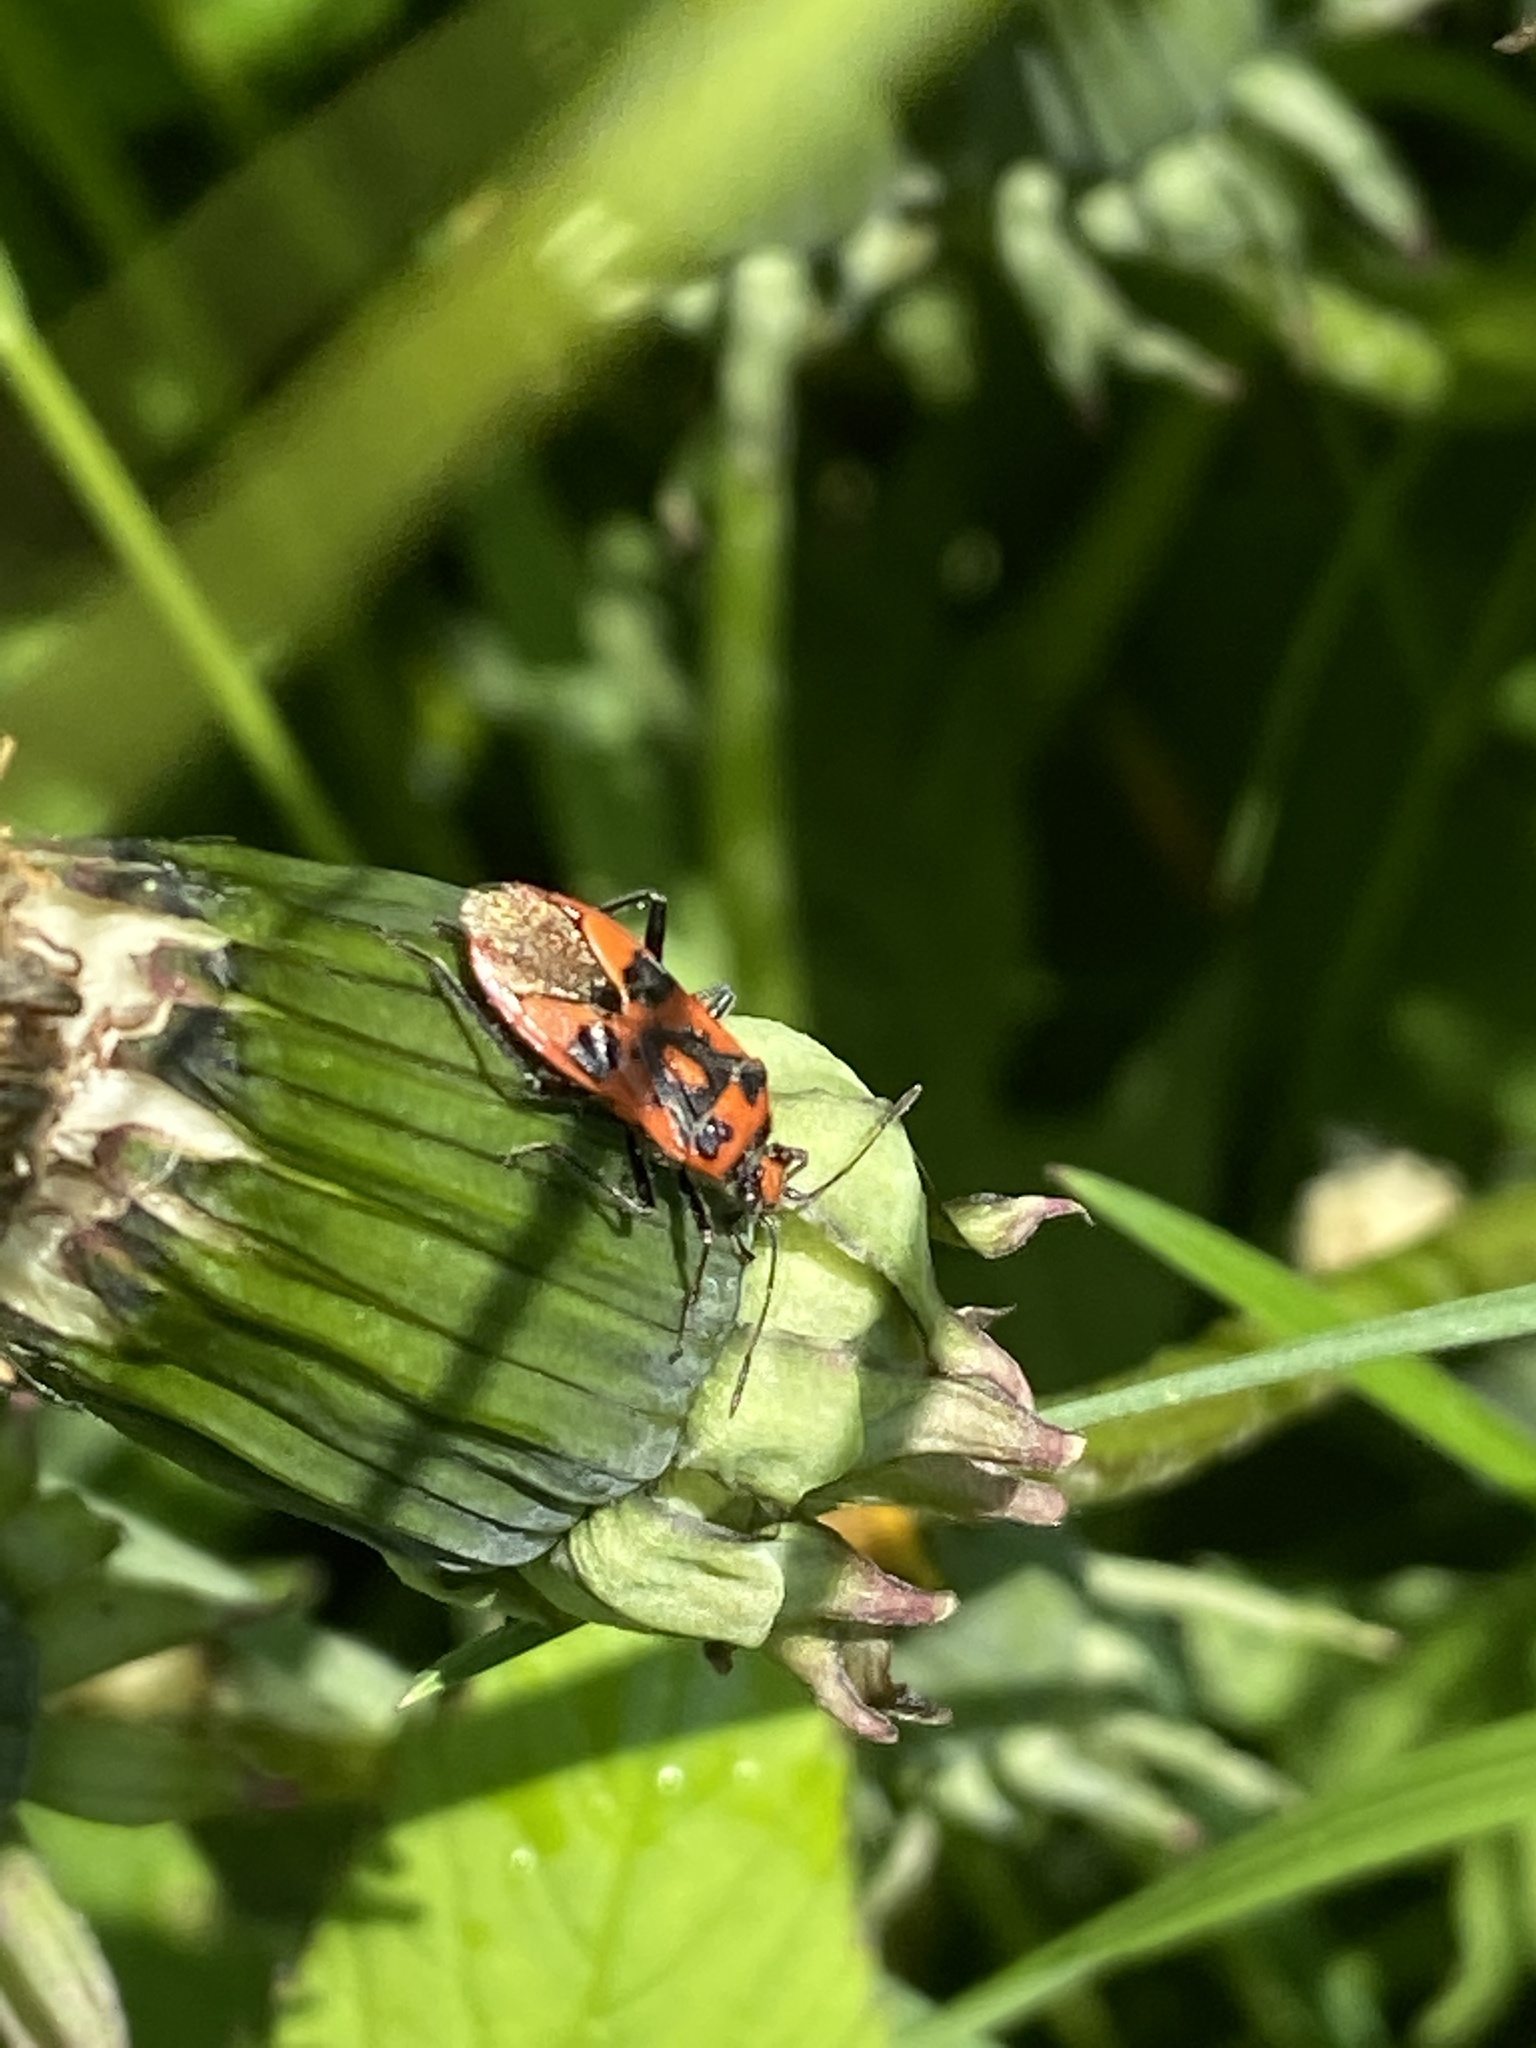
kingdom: Animalia
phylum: Arthropoda
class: Insecta
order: Hemiptera
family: Rhopalidae
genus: Corizus
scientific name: Corizus hyoscyami
